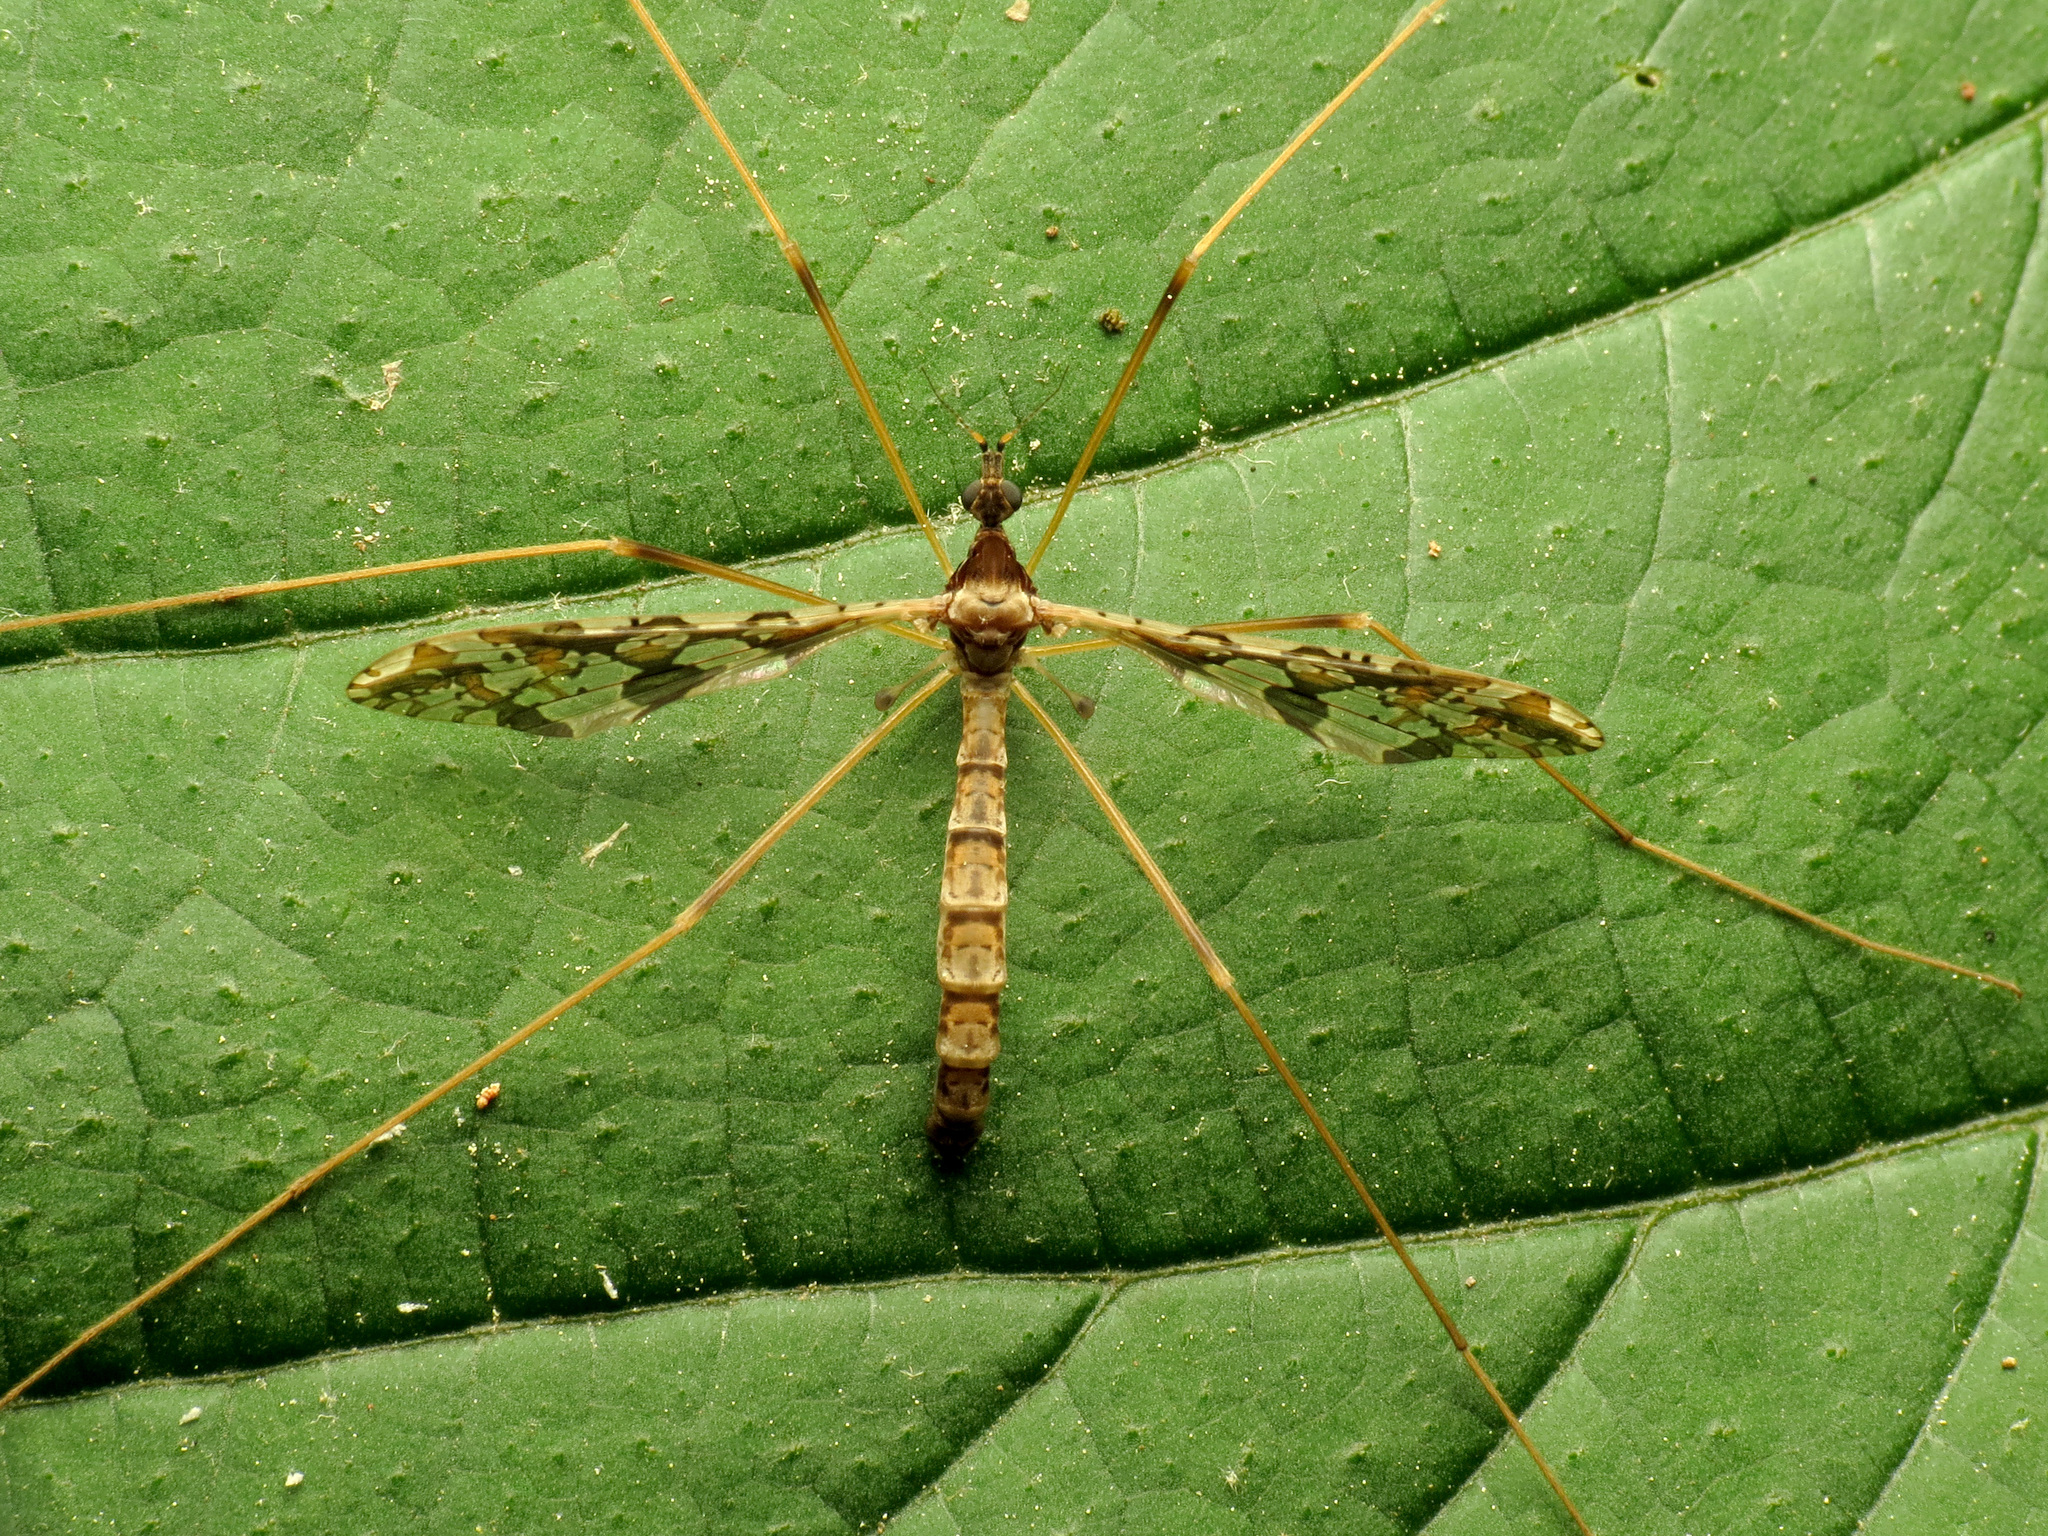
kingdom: Animalia
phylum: Arthropoda
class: Insecta
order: Diptera
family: Limoniidae
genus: Epiphragma
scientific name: Epiphragma solatrix
